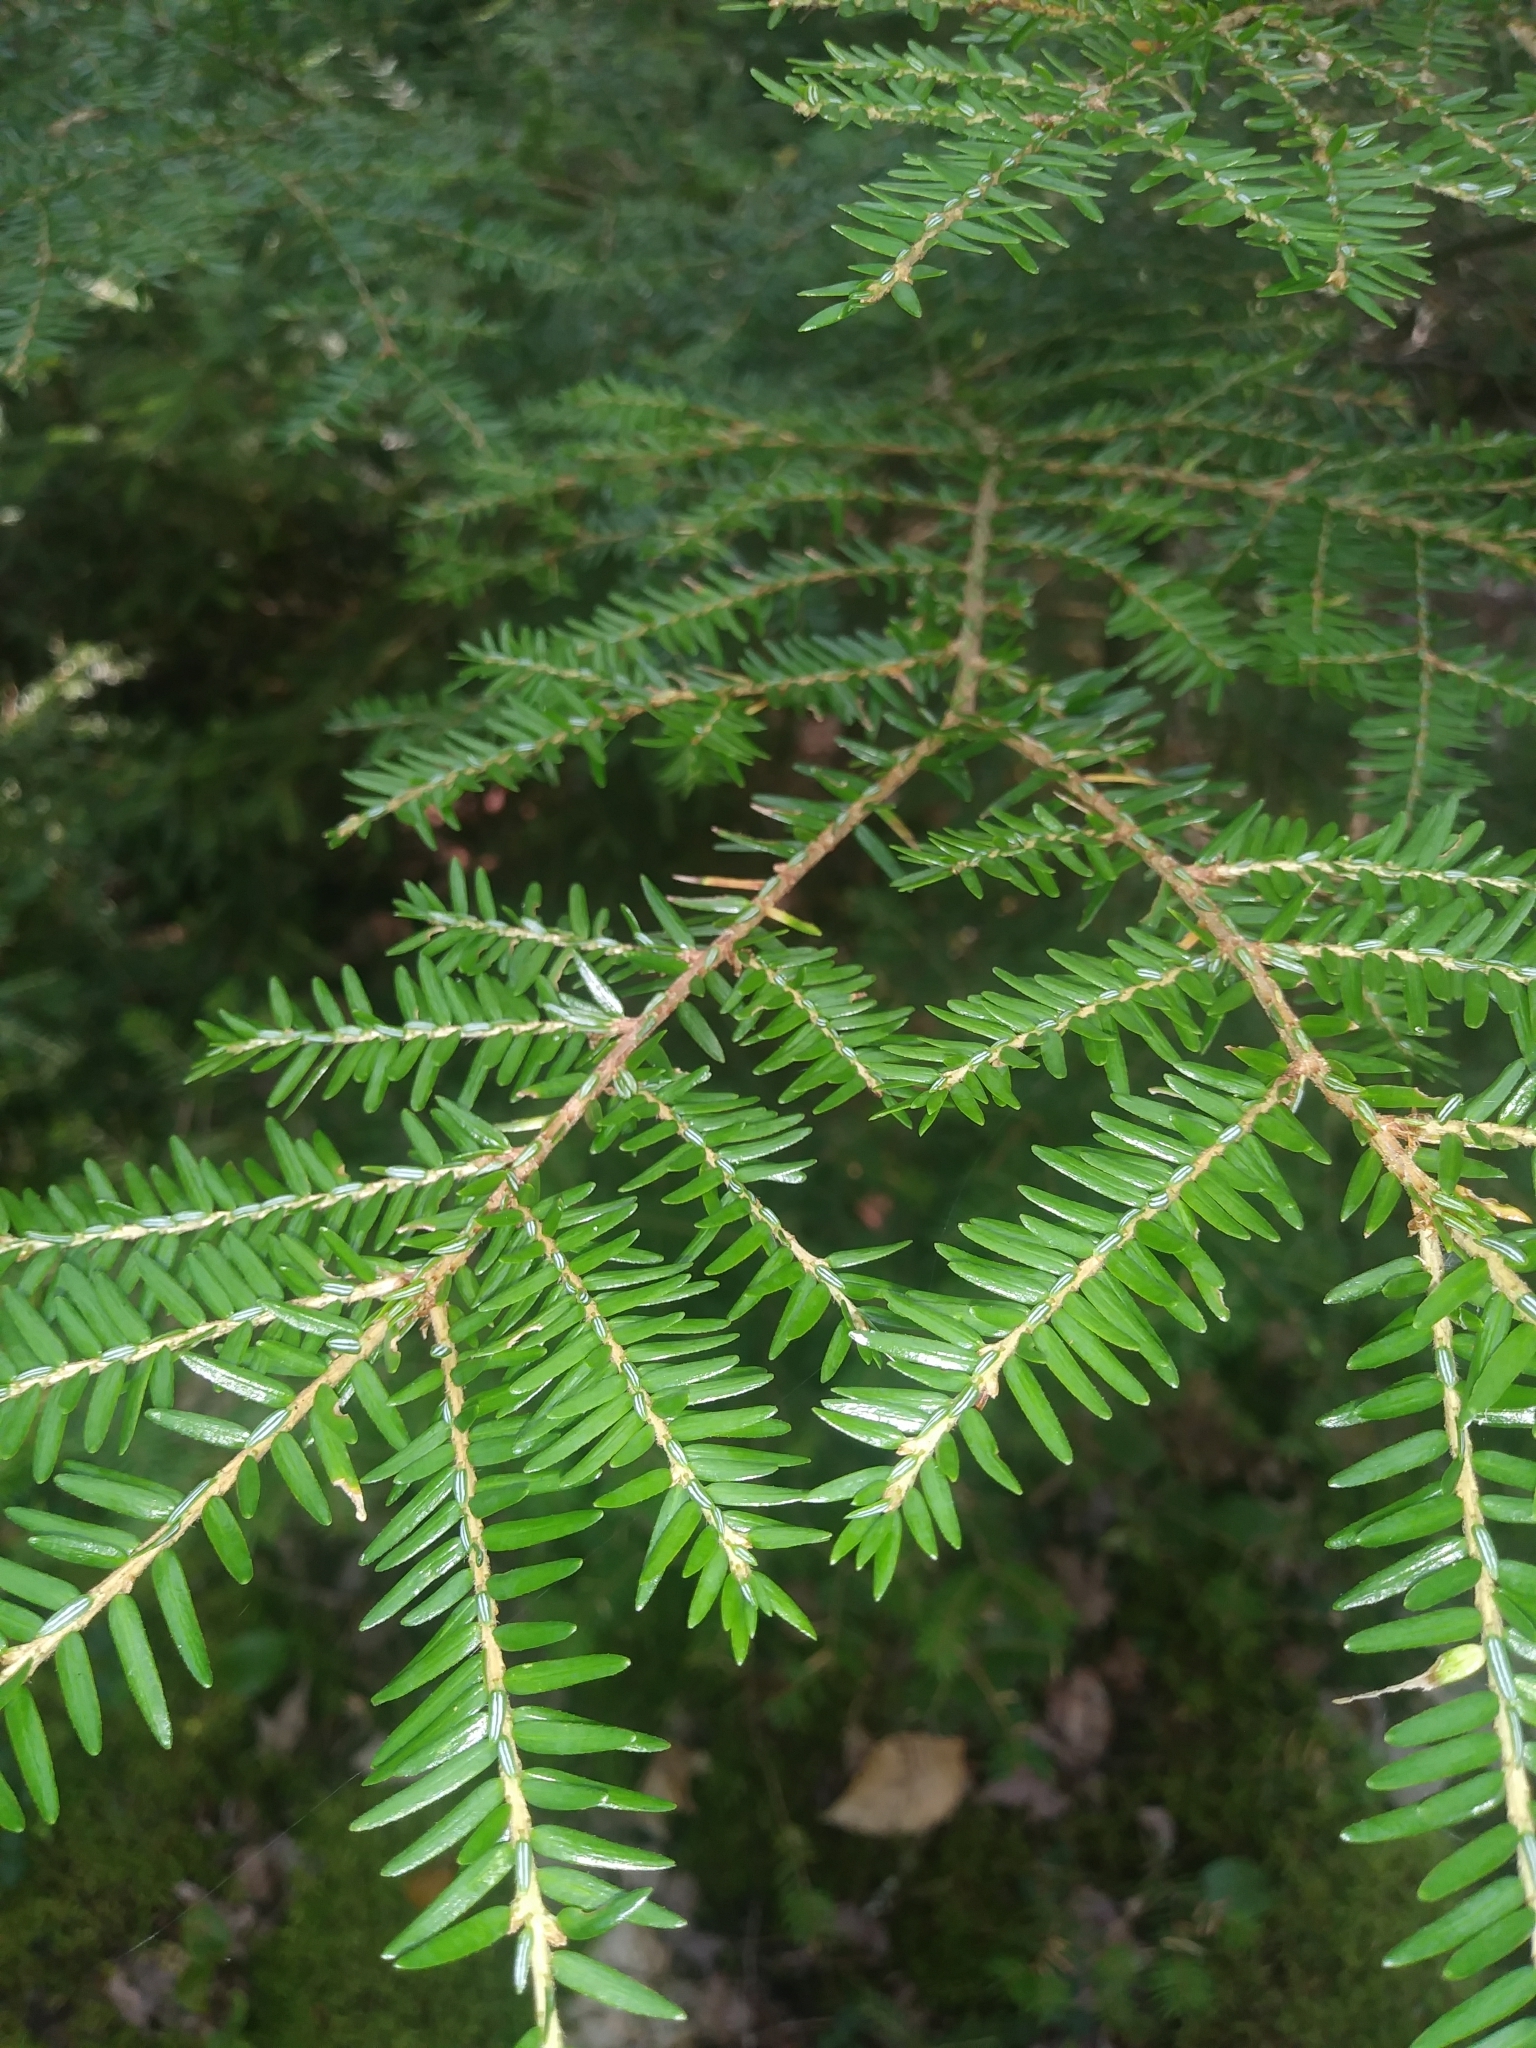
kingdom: Plantae
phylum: Tracheophyta
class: Pinopsida
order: Pinales
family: Pinaceae
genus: Tsuga
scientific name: Tsuga canadensis
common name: Eastern hemlock
